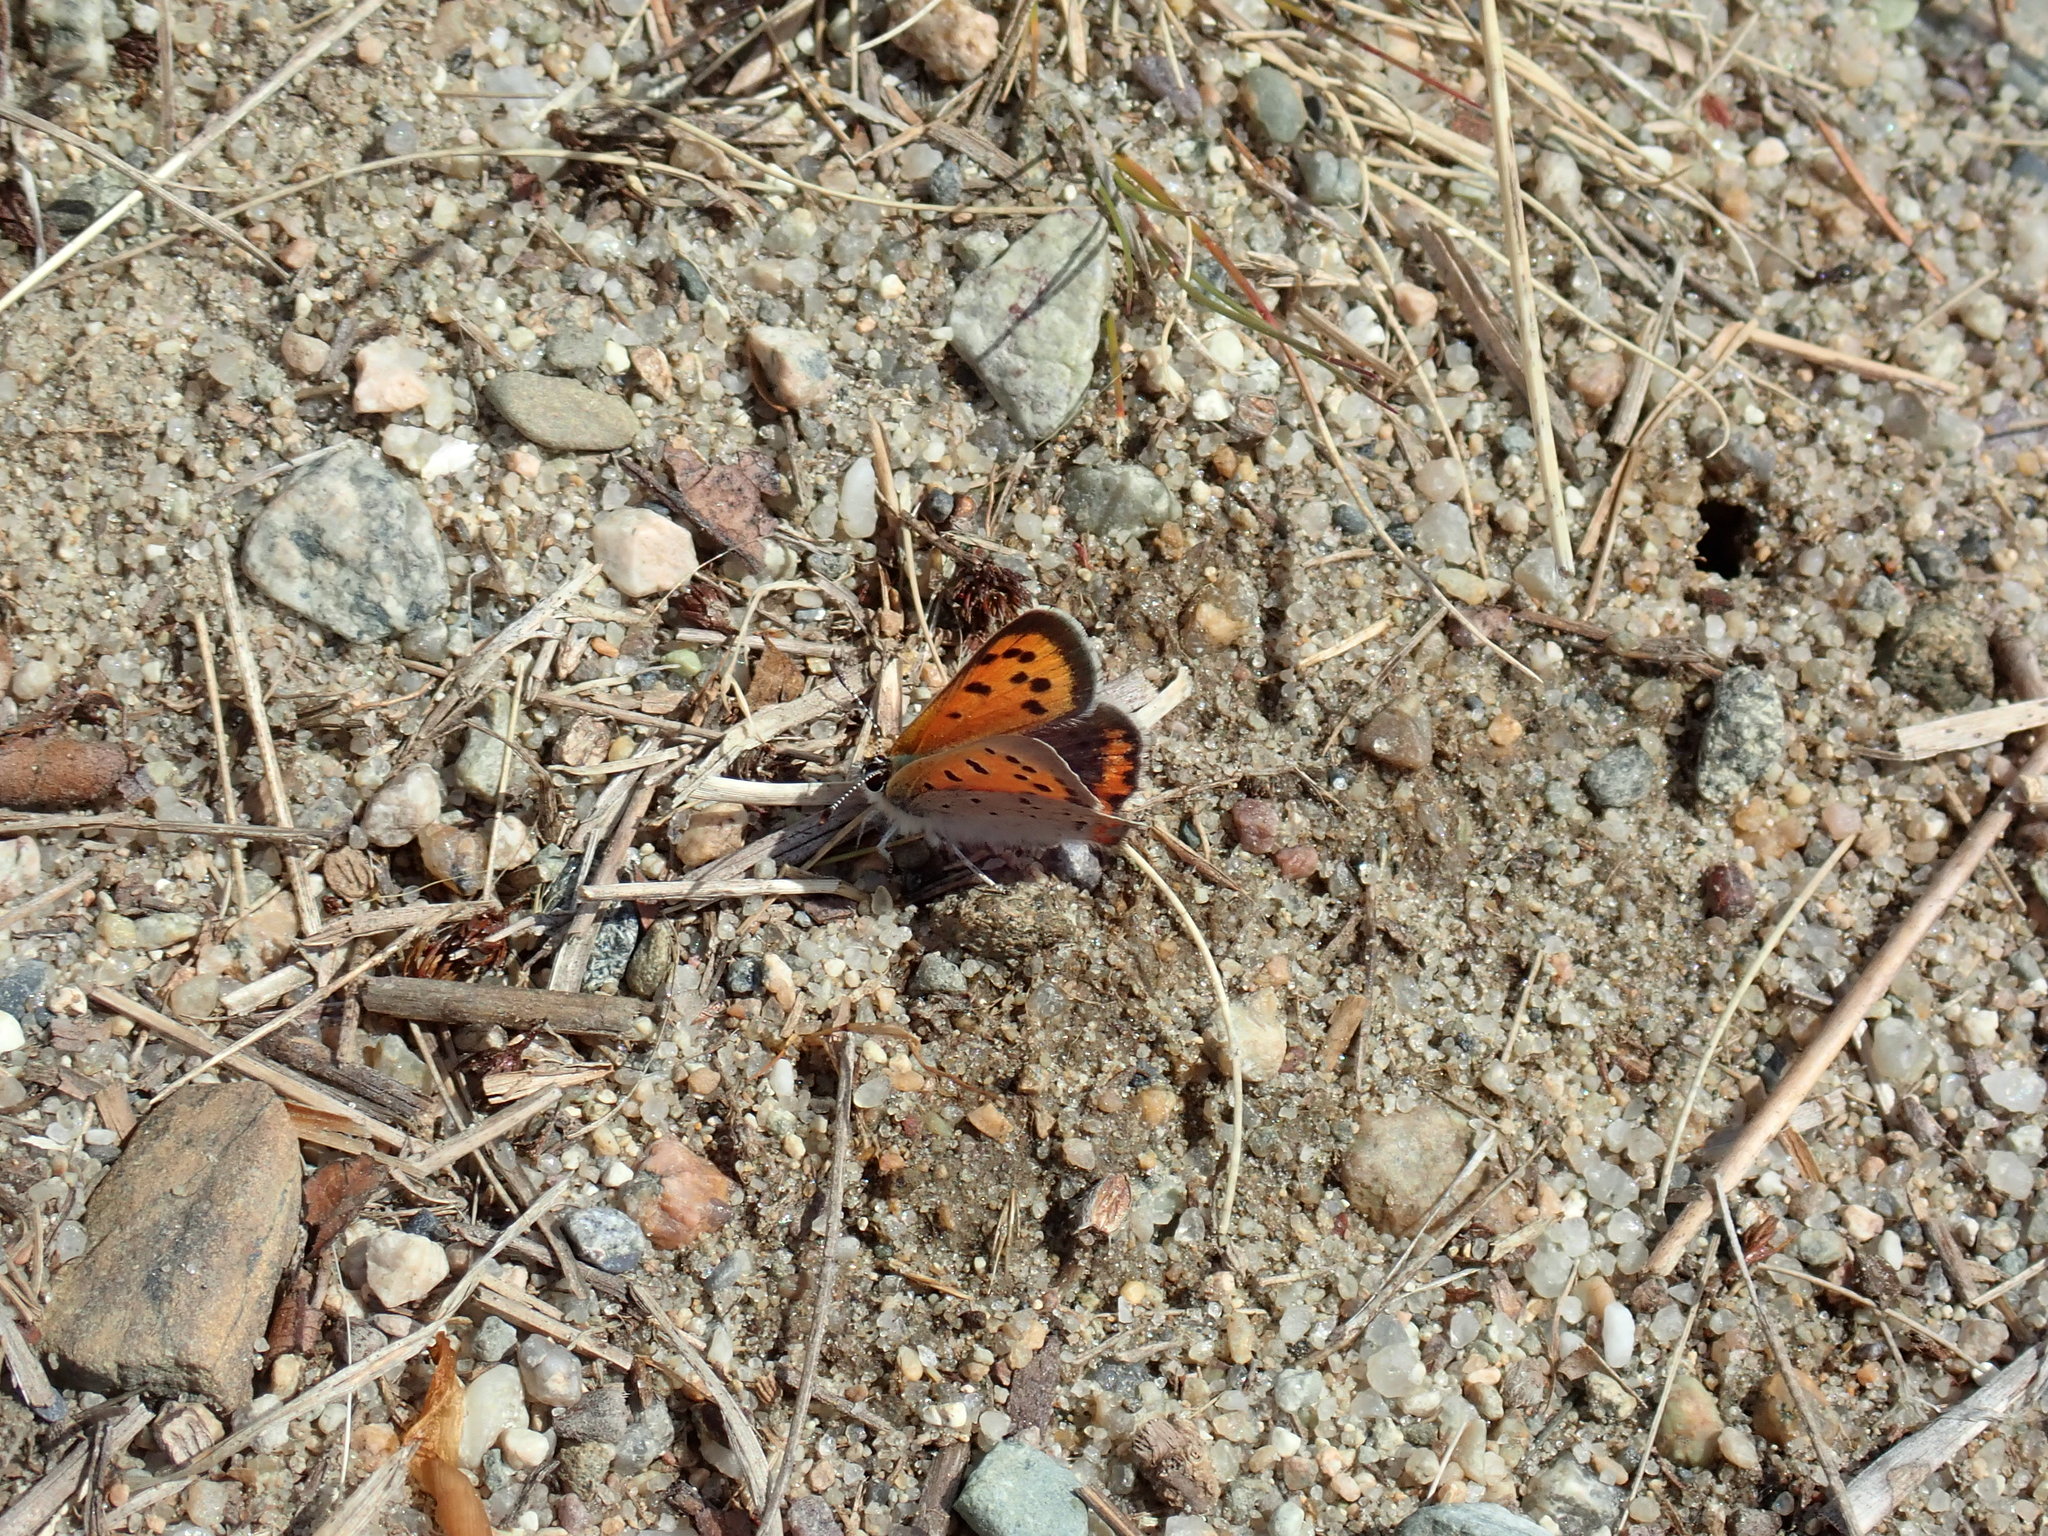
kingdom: Animalia
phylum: Arthropoda
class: Insecta
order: Lepidoptera
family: Lycaenidae
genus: Lycaena
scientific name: Lycaena hypophlaeas
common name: American copper
